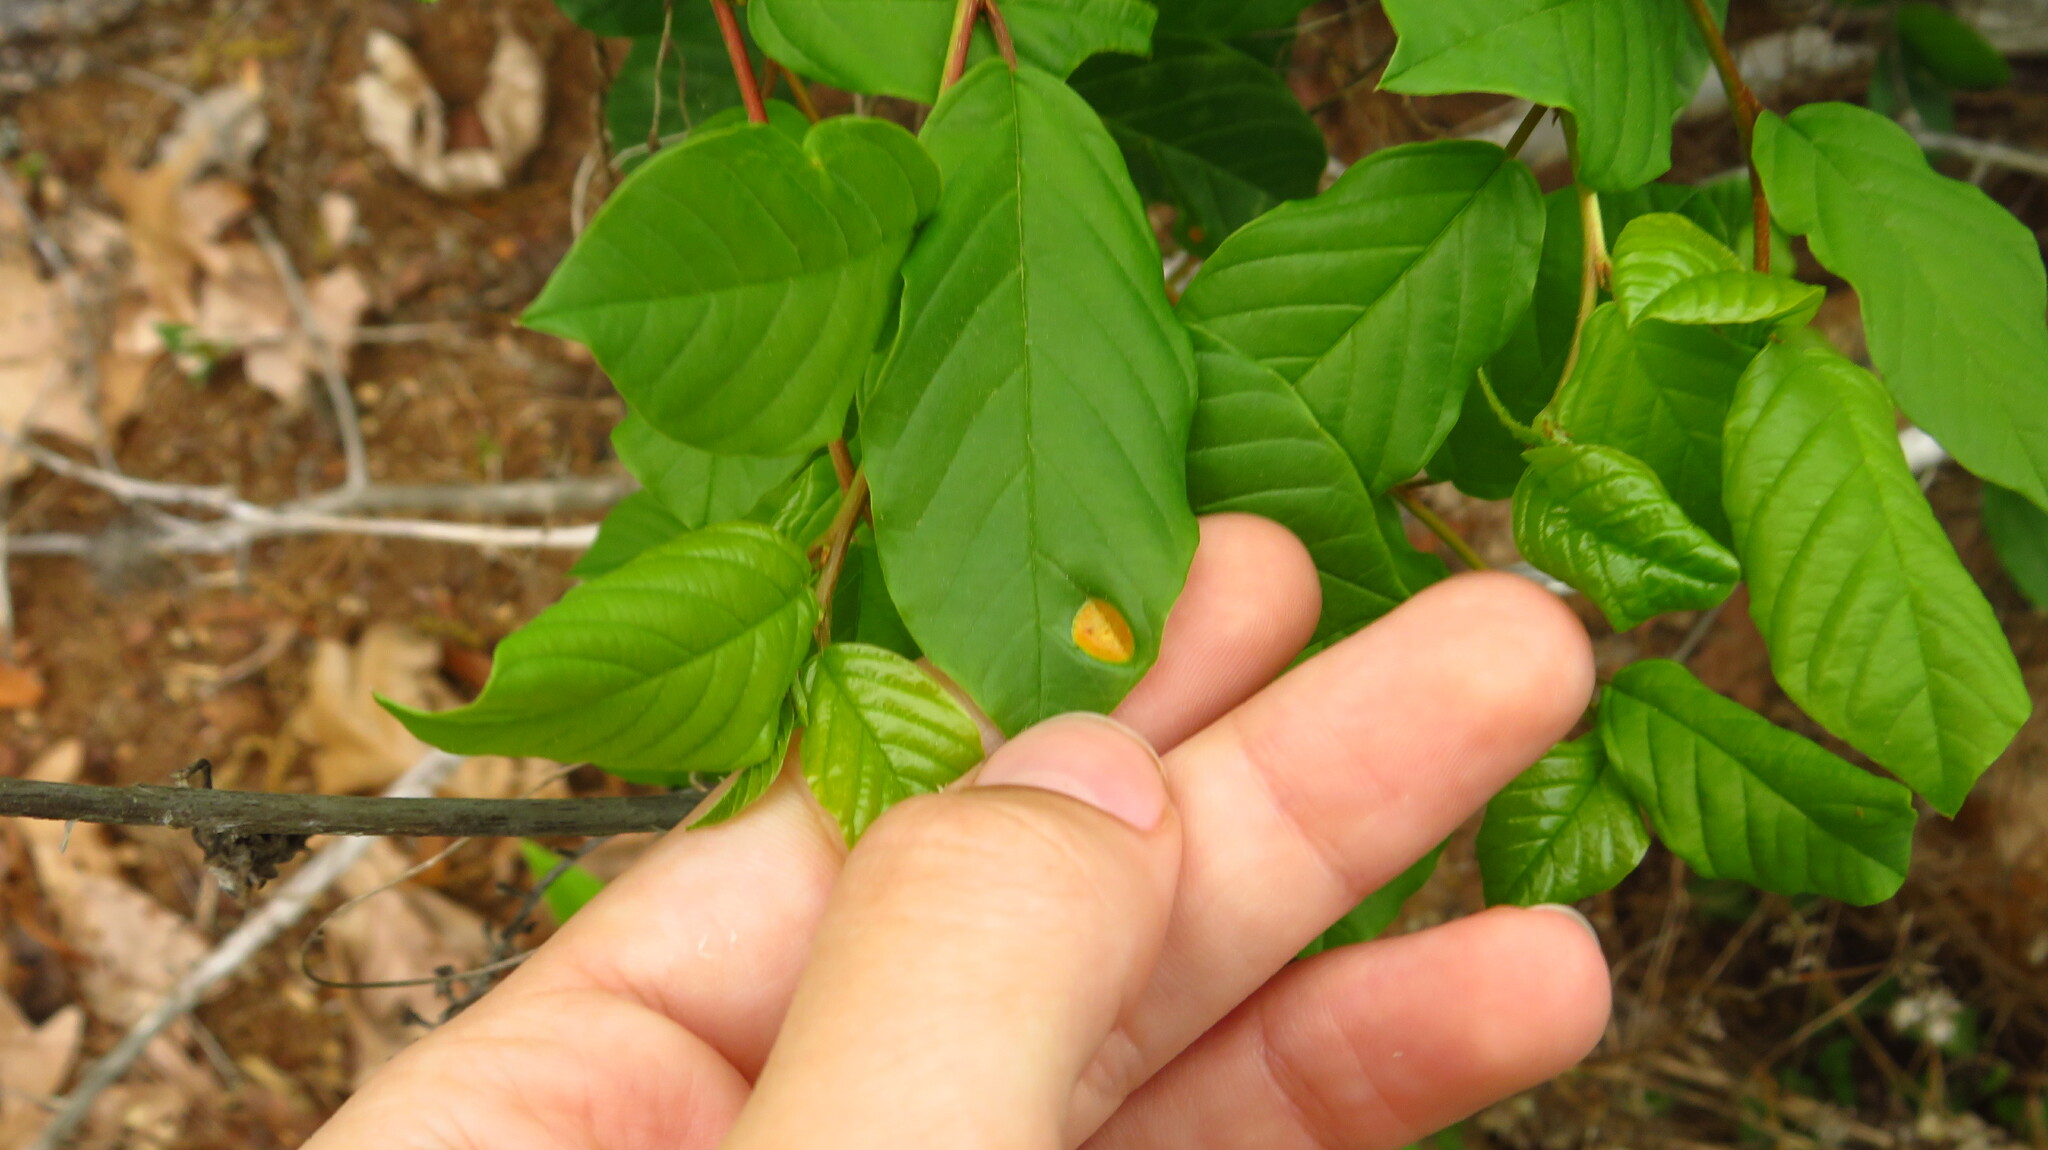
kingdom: Plantae
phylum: Tracheophyta
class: Magnoliopsida
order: Rosales
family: Rhamnaceae
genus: Frangula
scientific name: Frangula alnus
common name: Alder buckthorn
